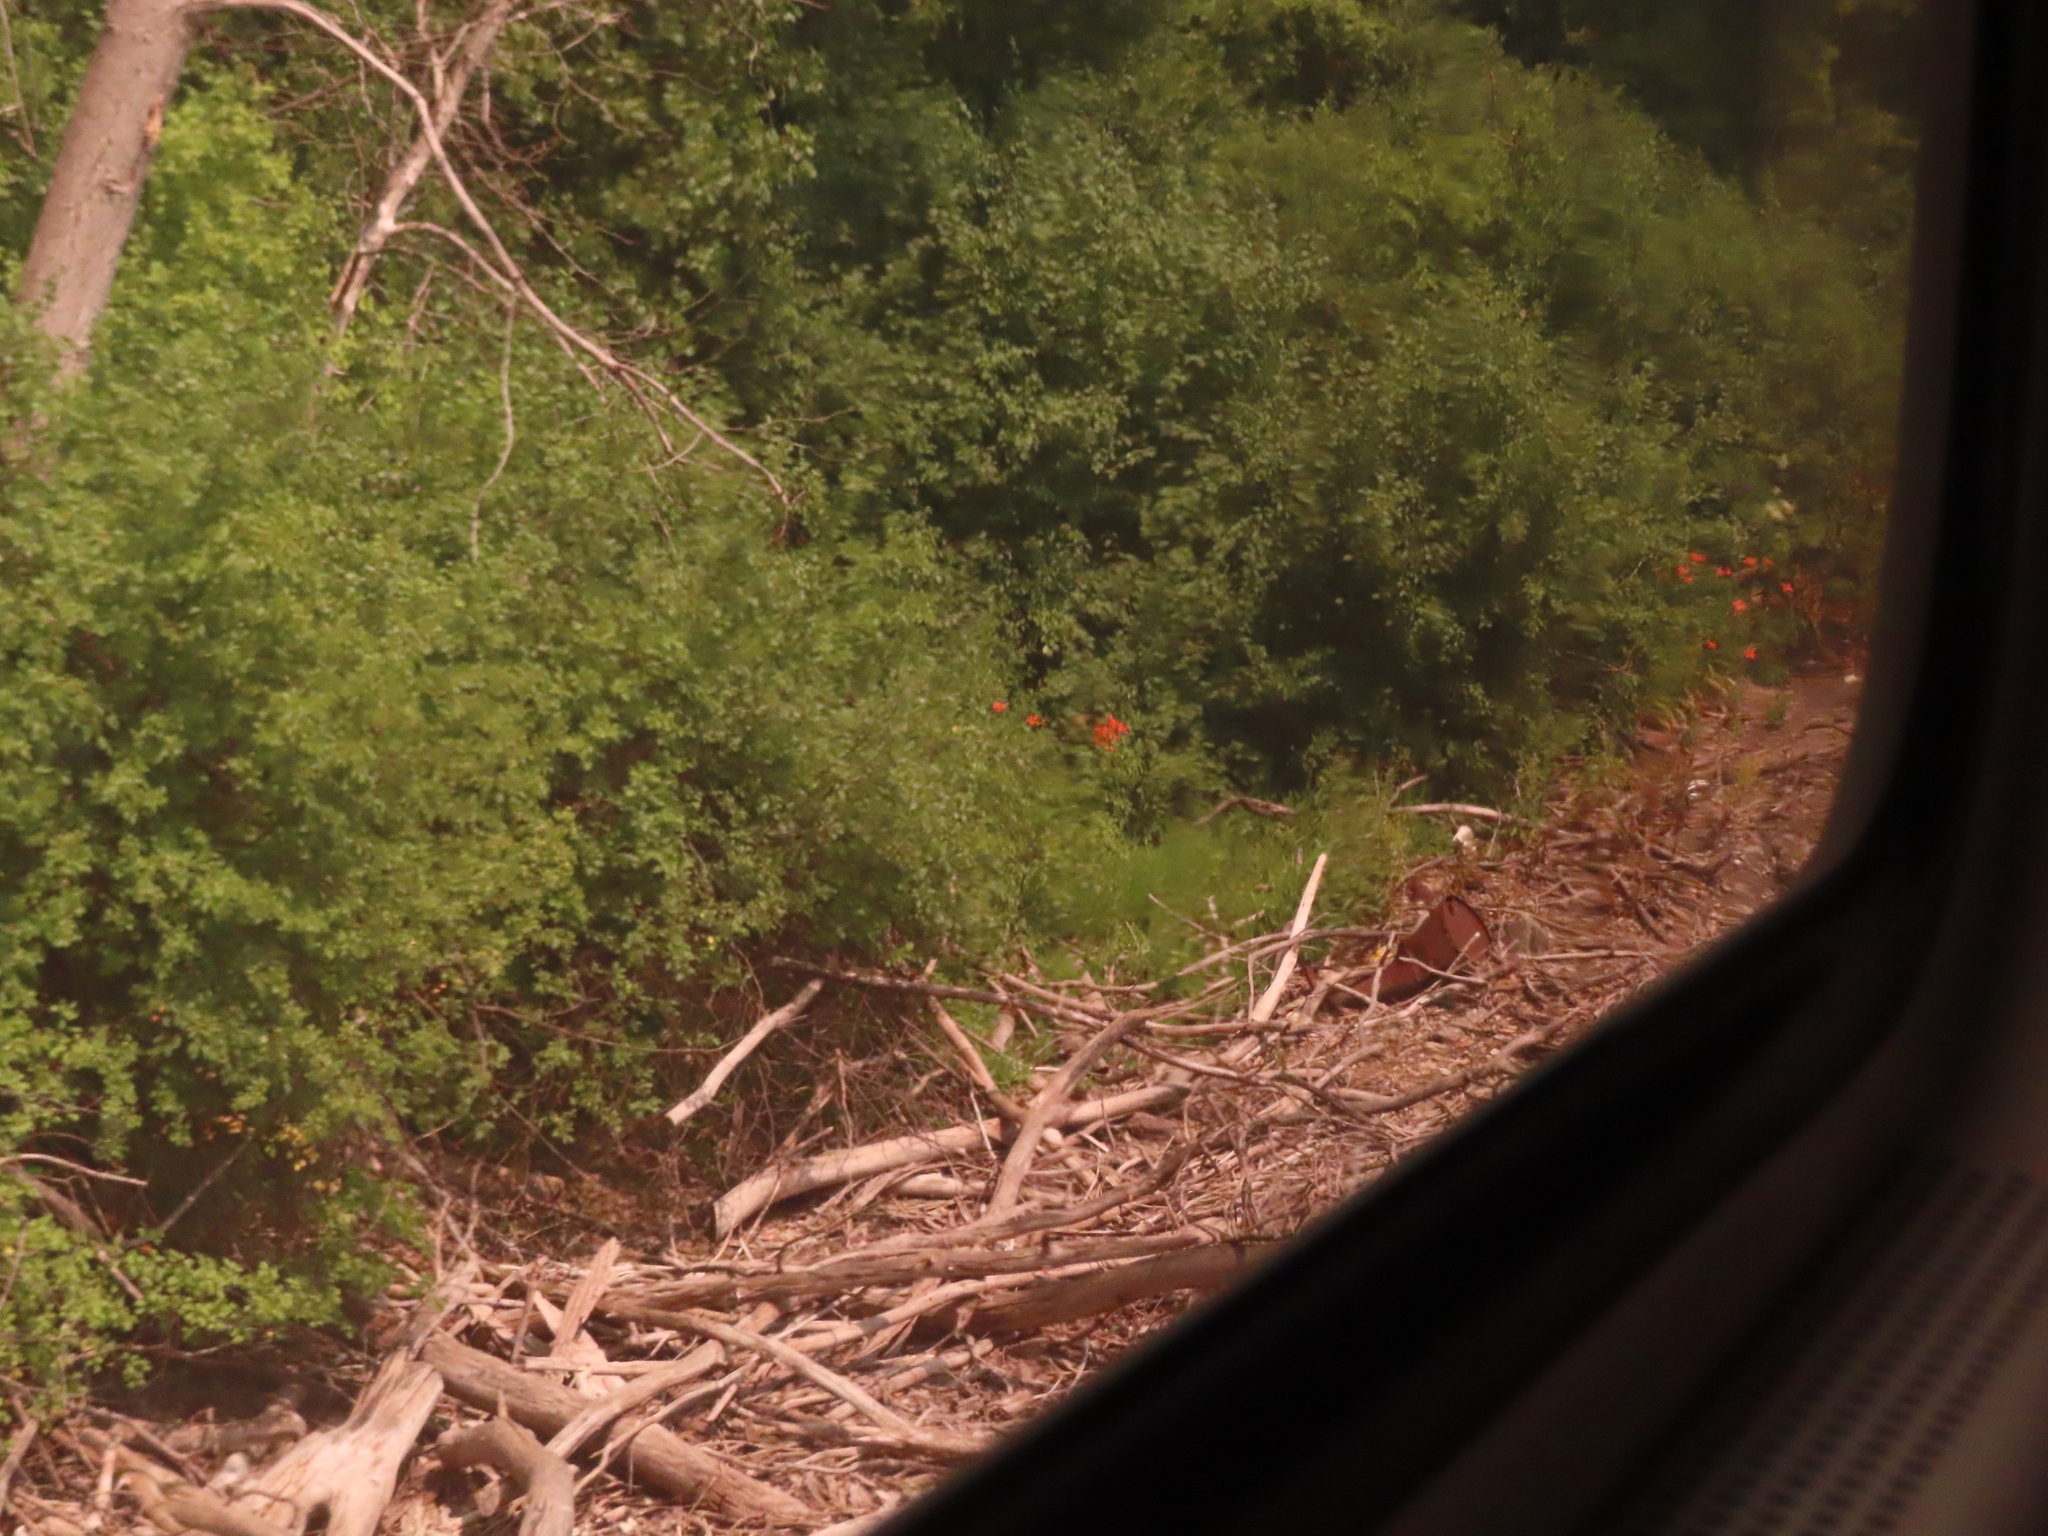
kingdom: Plantae
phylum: Tracheophyta
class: Liliopsida
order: Asparagales
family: Asphodelaceae
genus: Hemerocallis
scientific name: Hemerocallis fulva
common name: Orange day-lily
